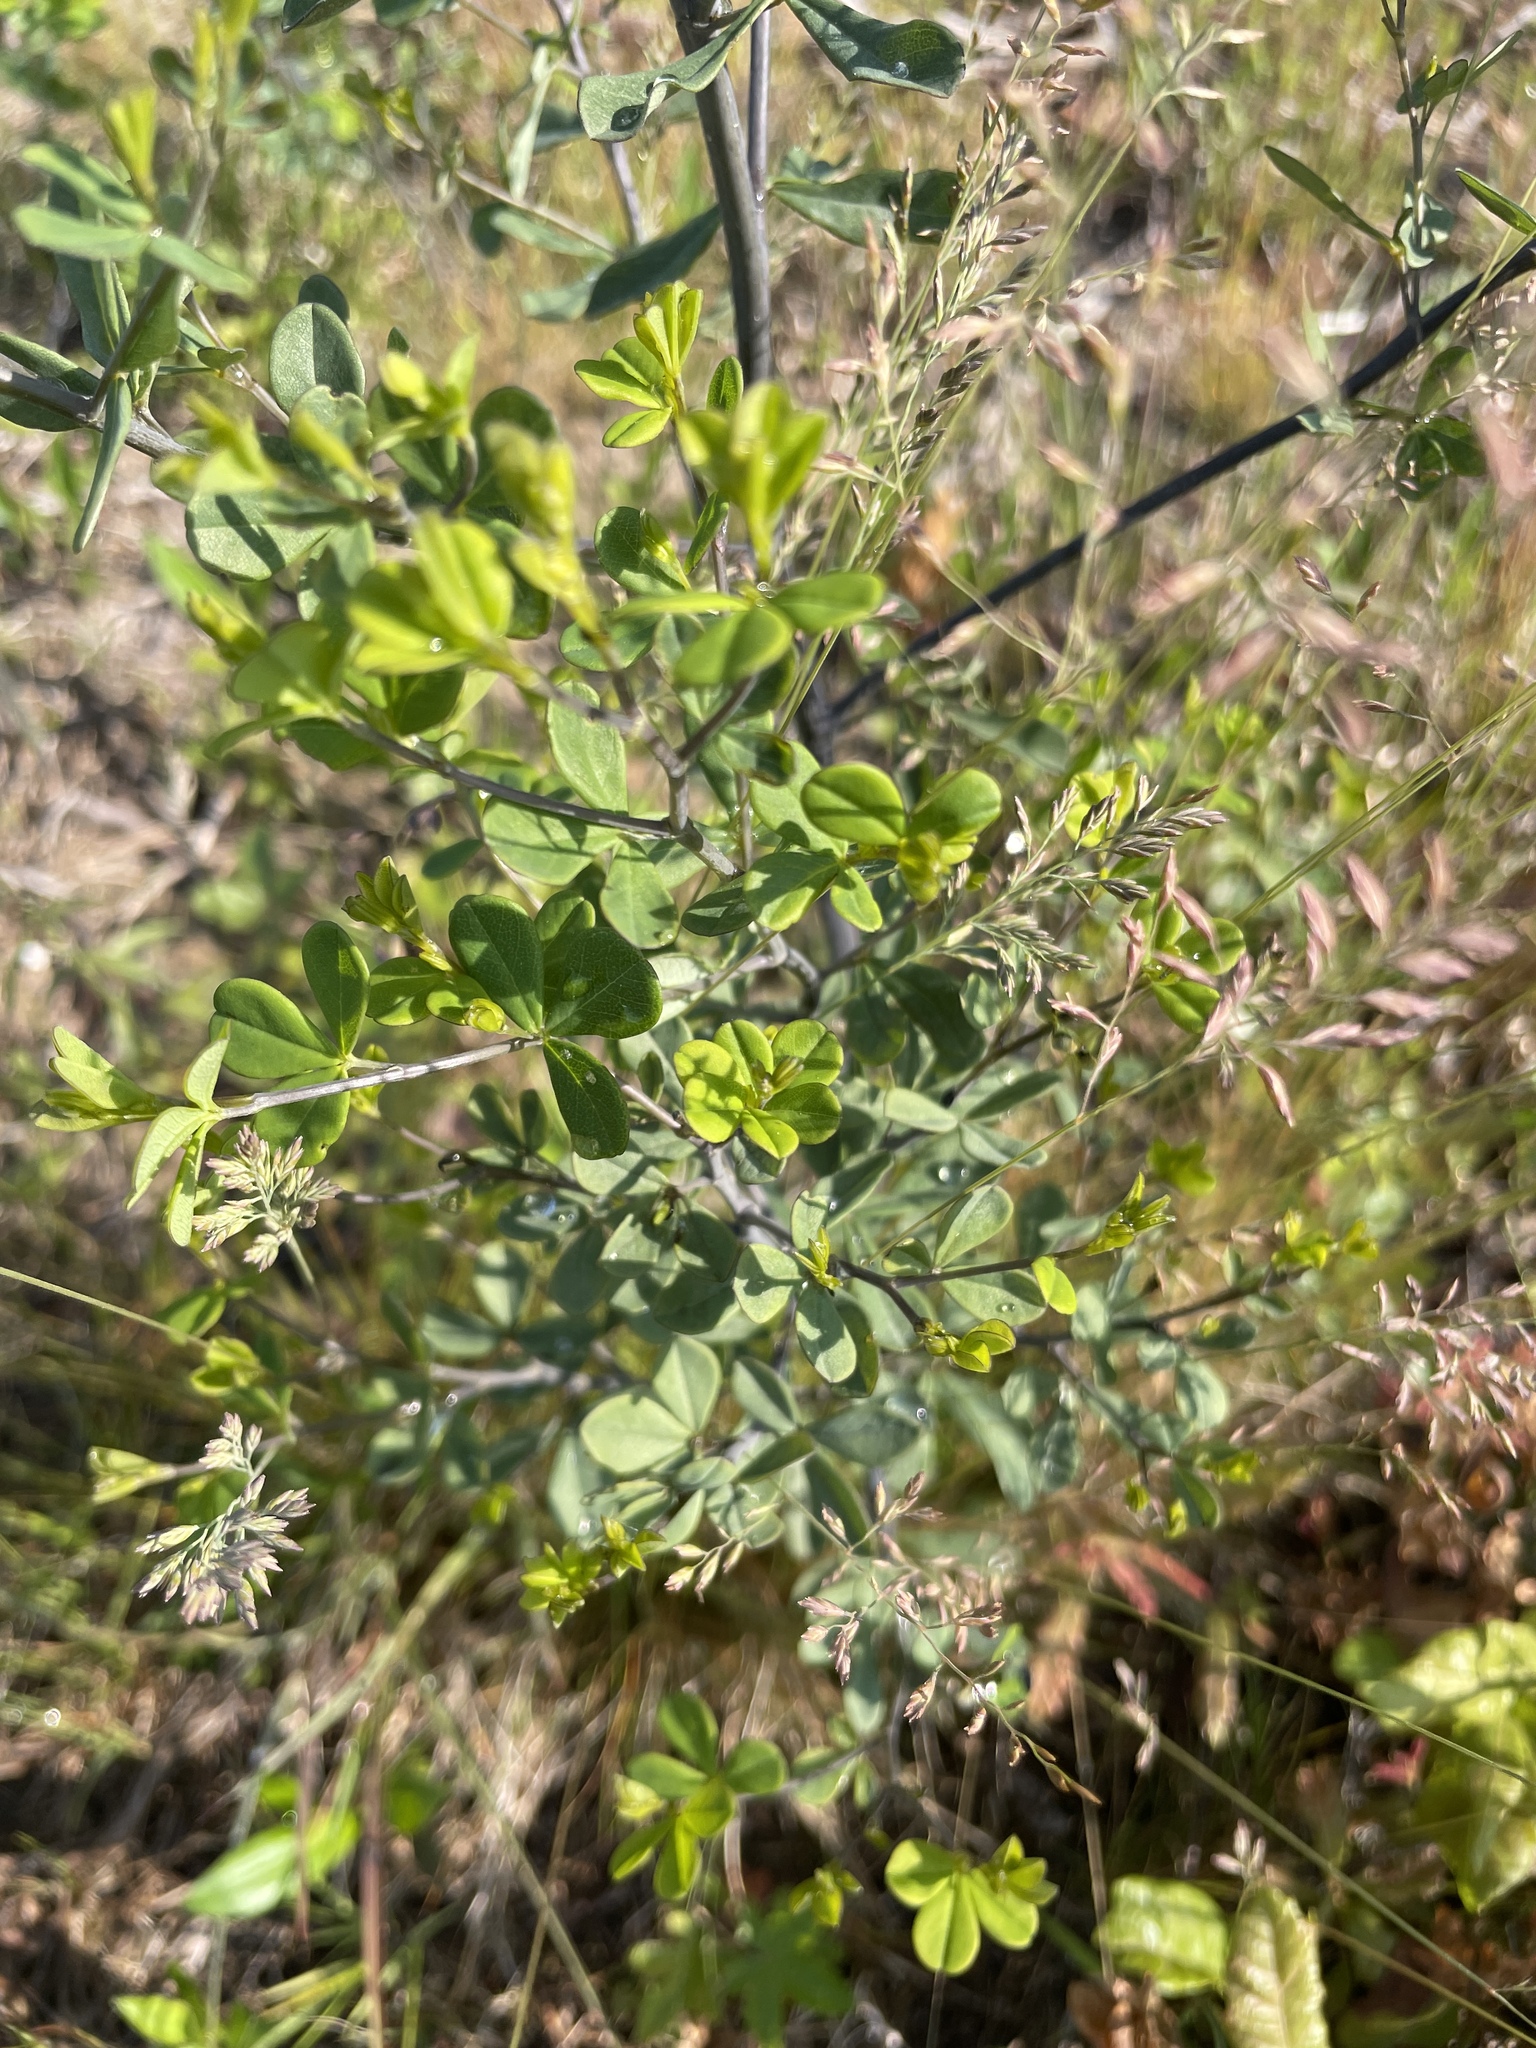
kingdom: Plantae
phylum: Tracheophyta
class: Magnoliopsida
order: Fabales
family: Fabaceae
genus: Baptisia
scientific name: Baptisia tinctoria
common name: Wild indigo
